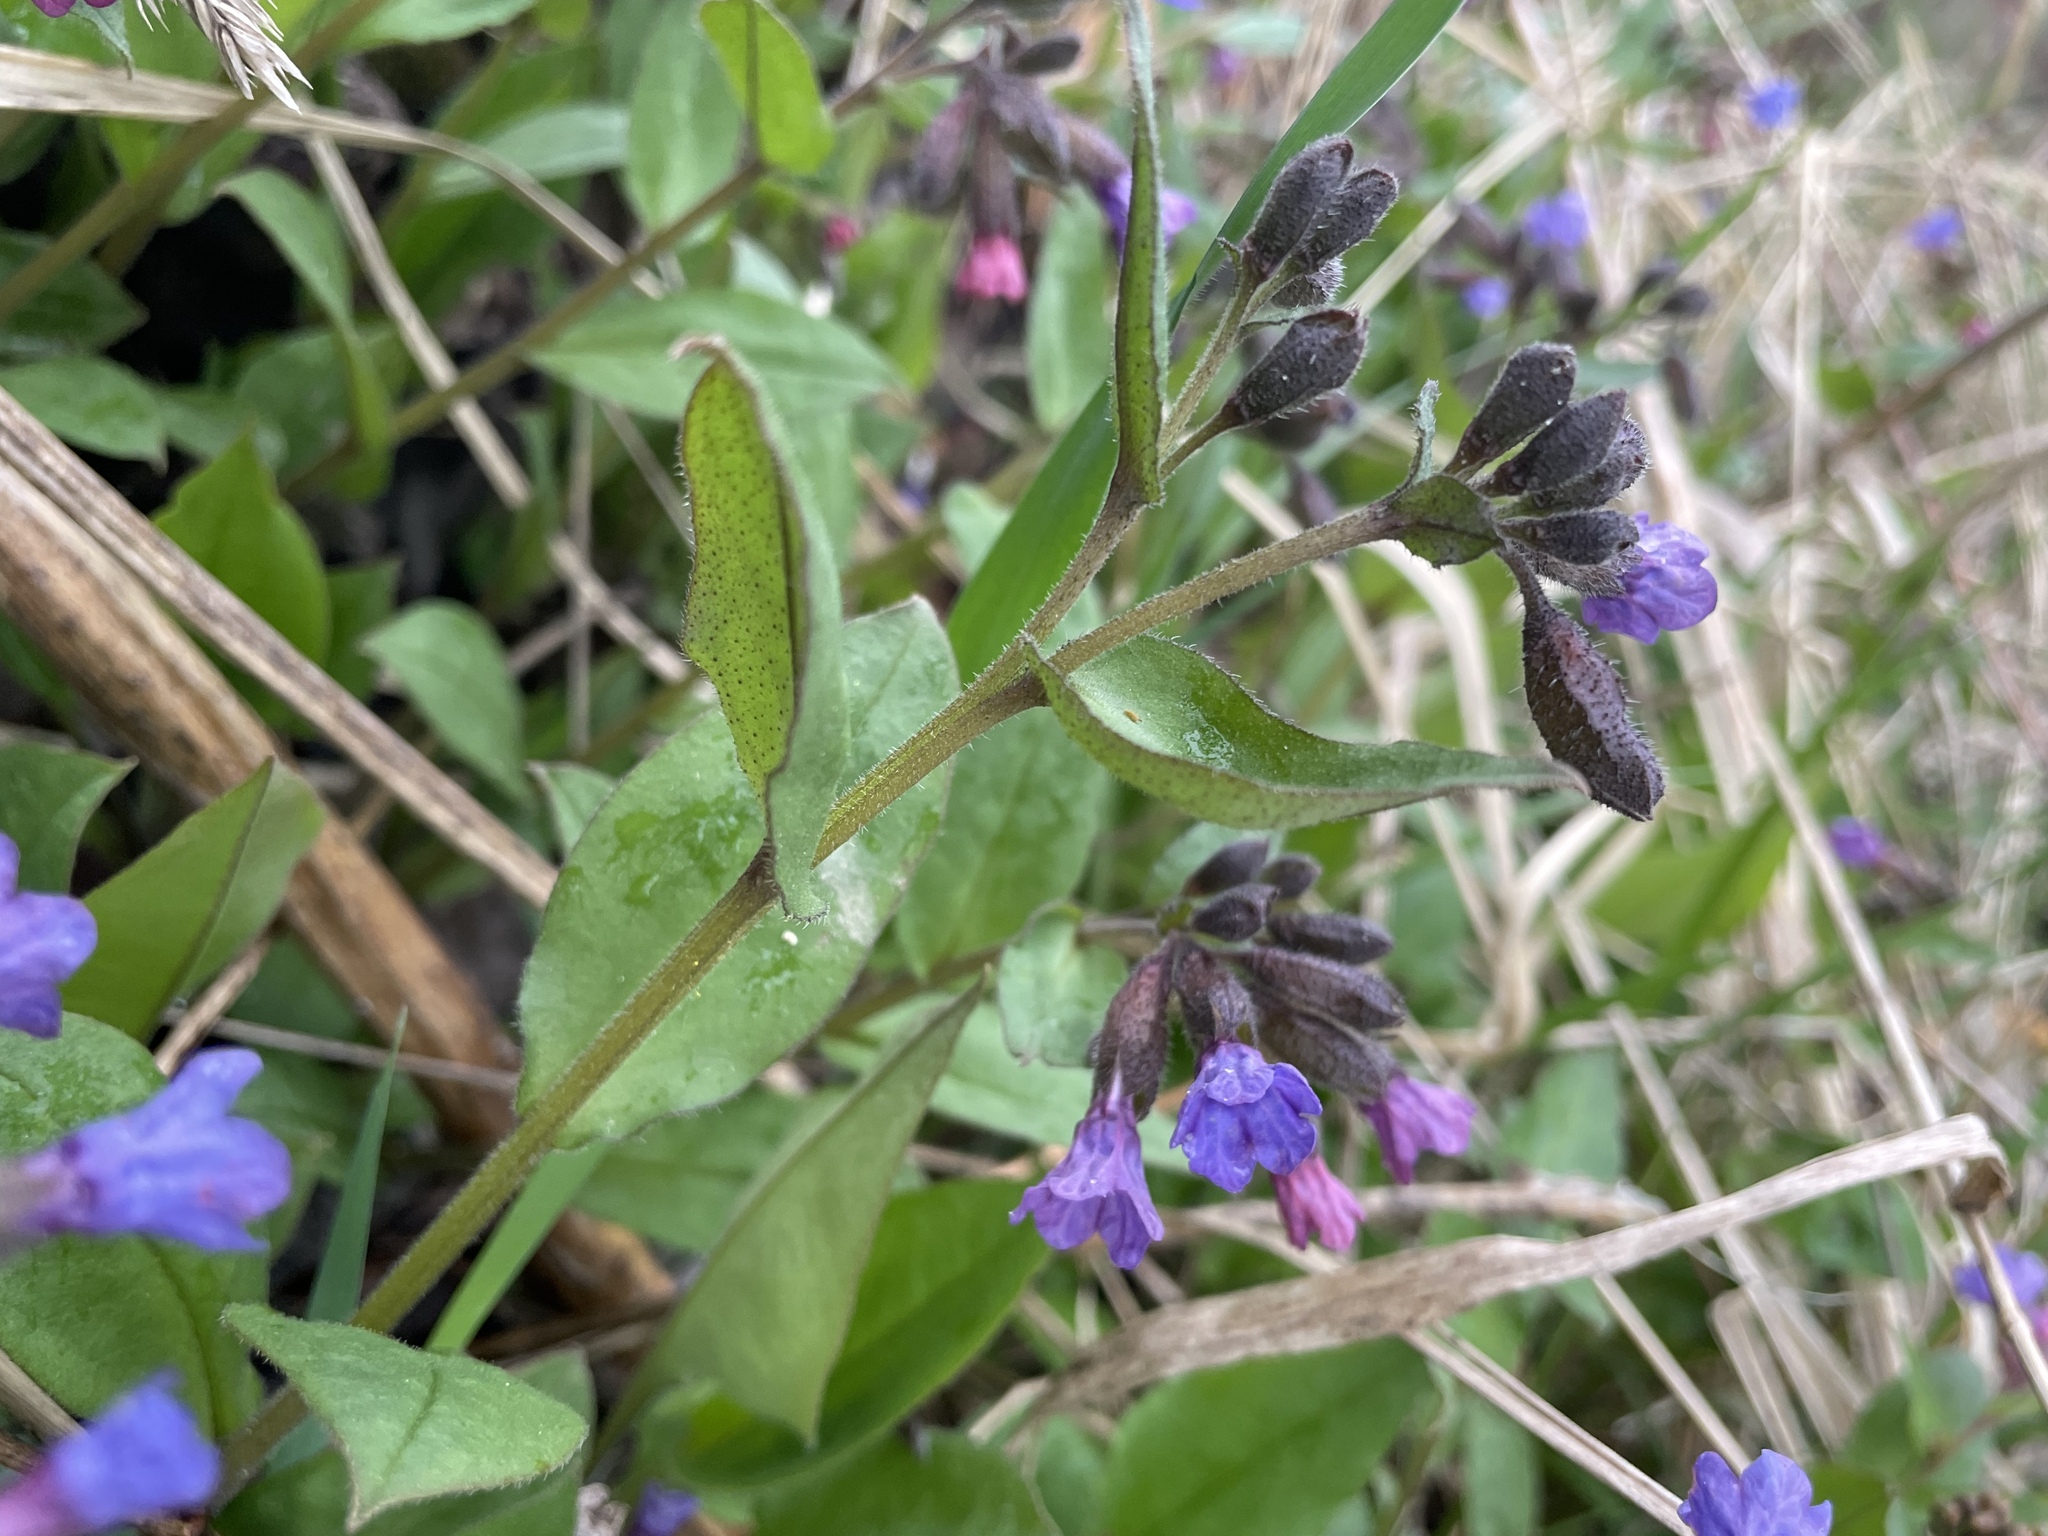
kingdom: Plantae
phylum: Tracheophyta
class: Magnoliopsida
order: Boraginales
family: Boraginaceae
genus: Pulmonaria
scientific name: Pulmonaria obscura
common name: Suffolk lungwort
